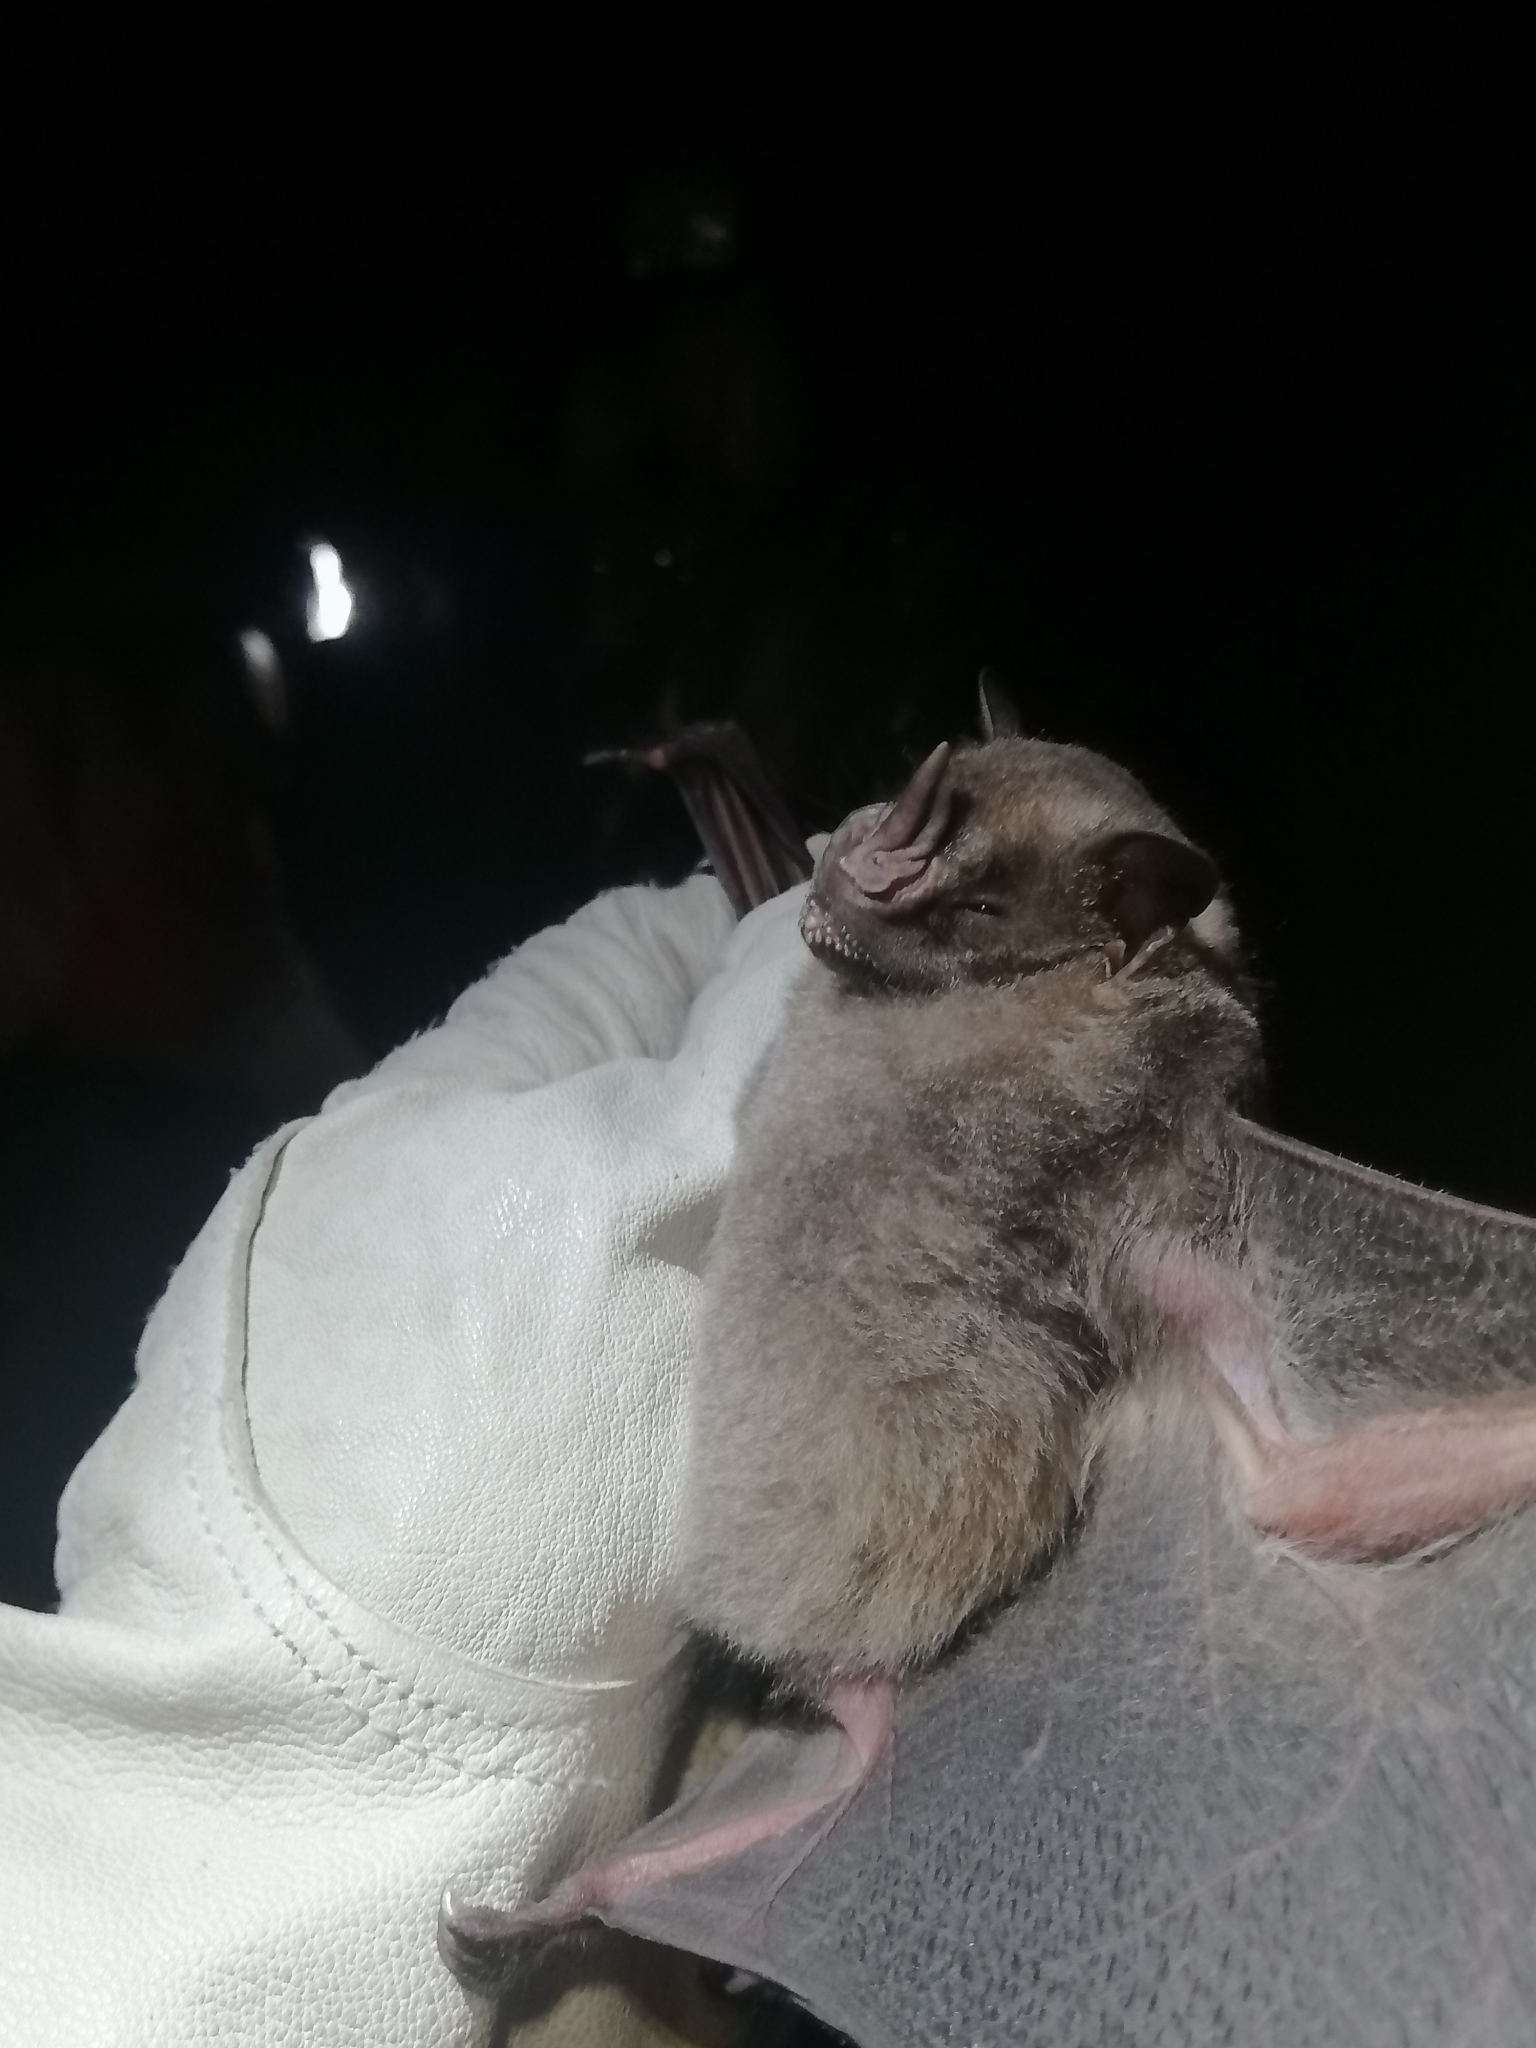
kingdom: Animalia
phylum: Chordata
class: Mammalia
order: Chiroptera
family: Phyllostomidae
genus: Artibeus
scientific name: Artibeus jamaicensis
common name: Jamaican fruit-eating bat
